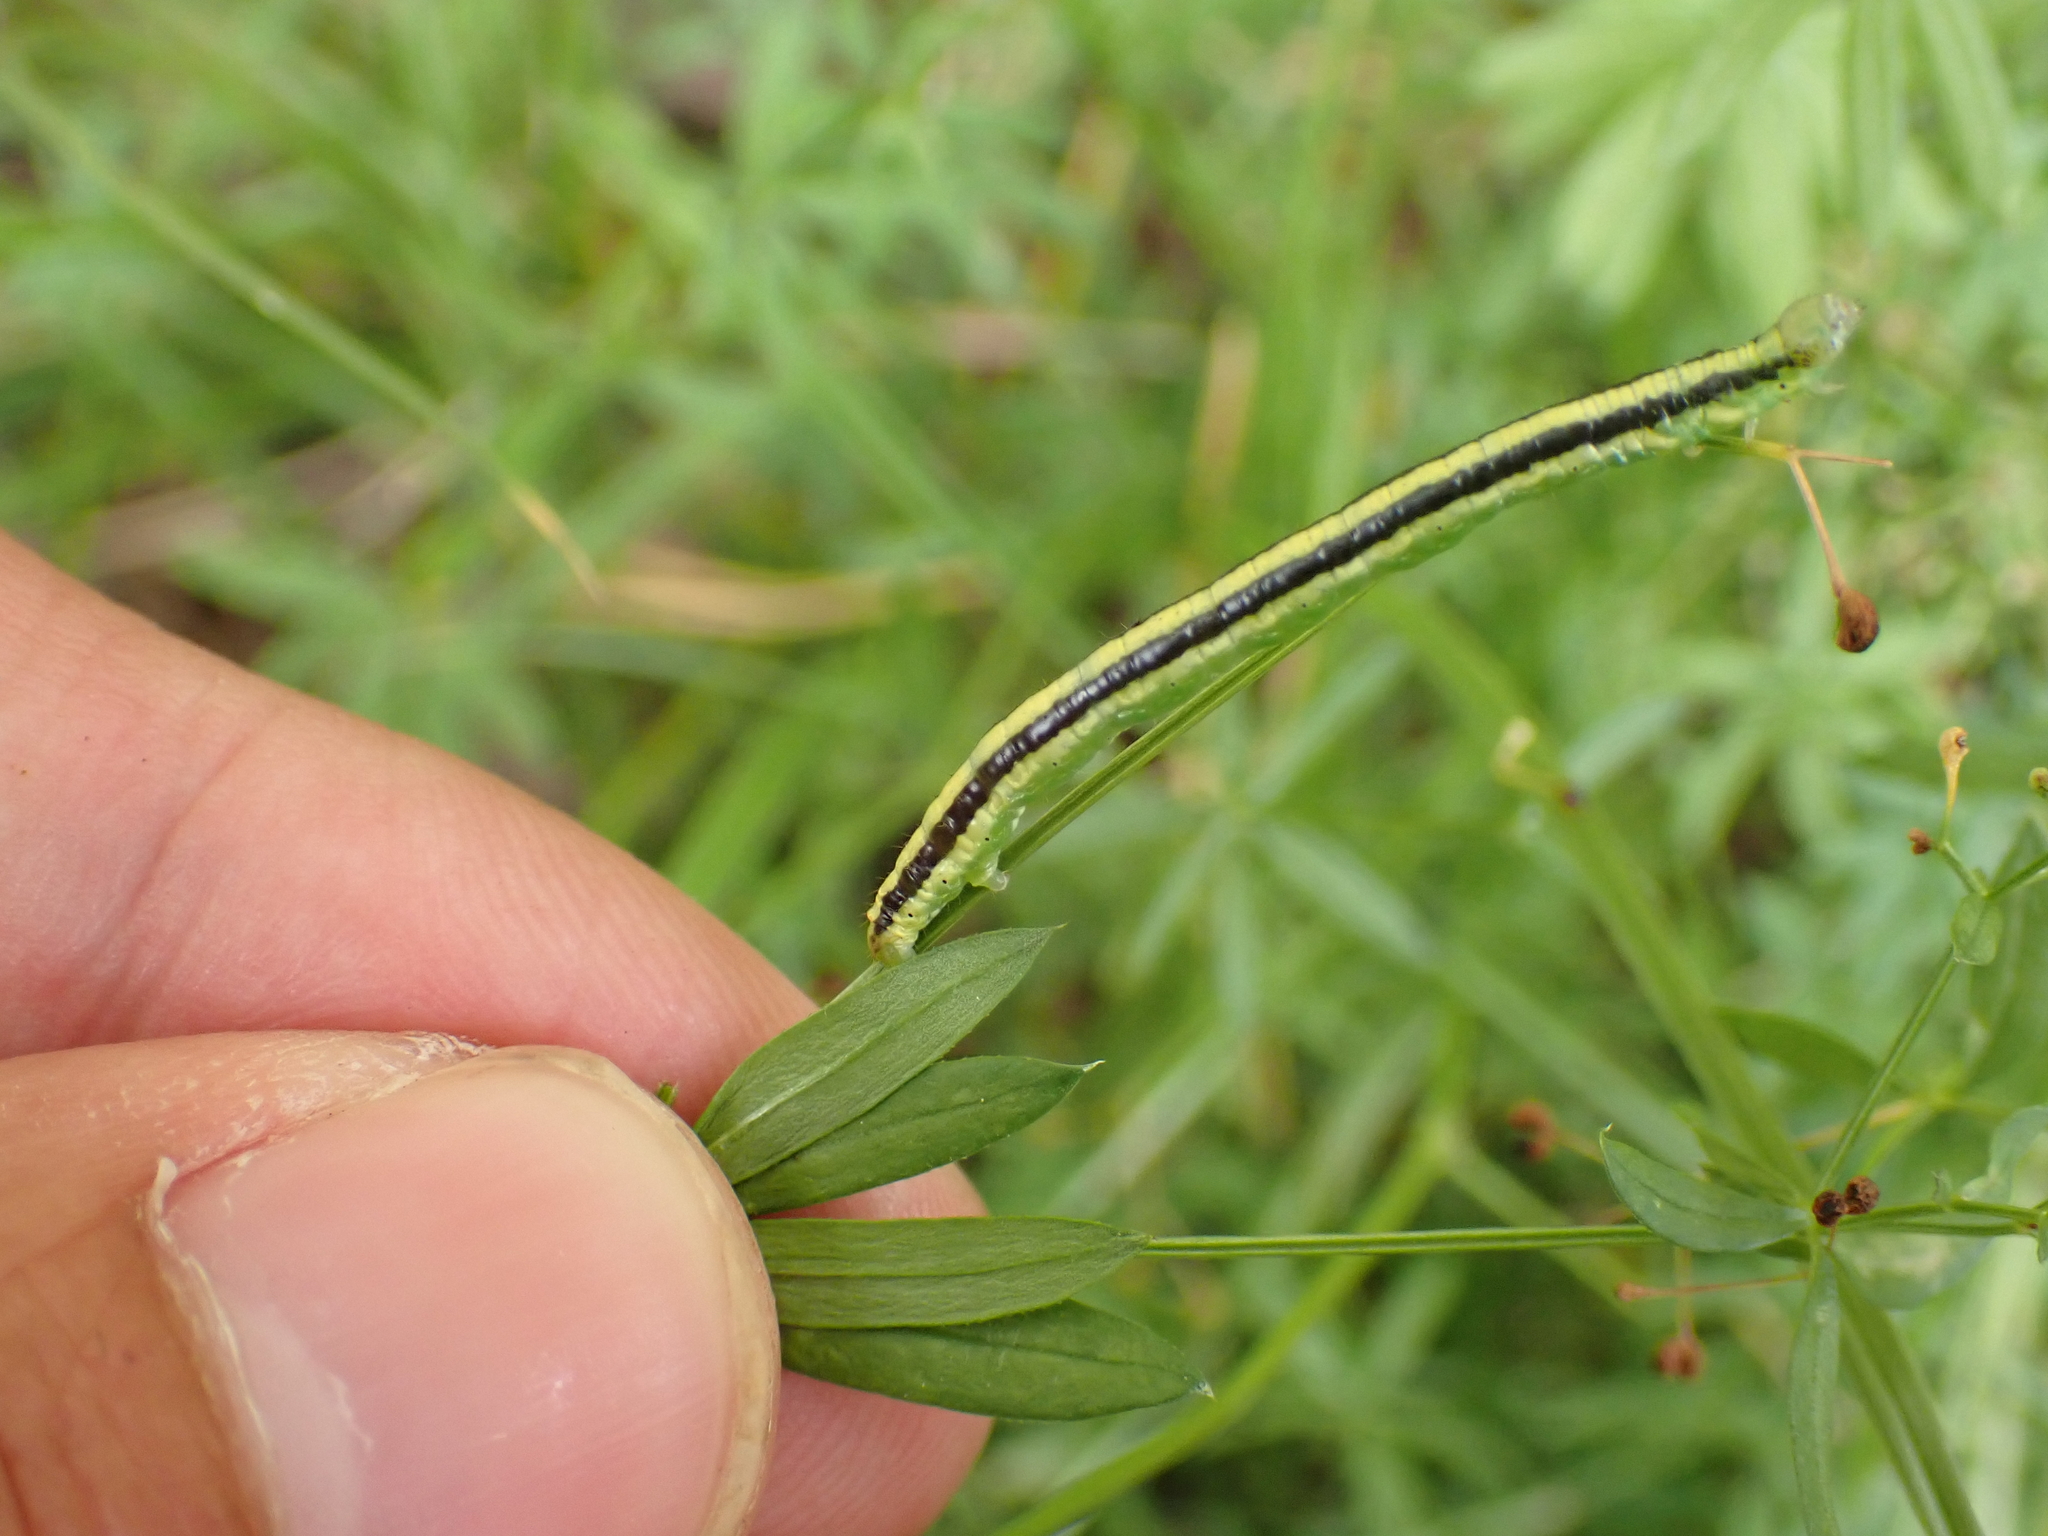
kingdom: Animalia
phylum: Arthropoda
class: Insecta
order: Lepidoptera
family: Geometridae
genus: Catarhoe
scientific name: Catarhoe cuculata
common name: Royal mantle
